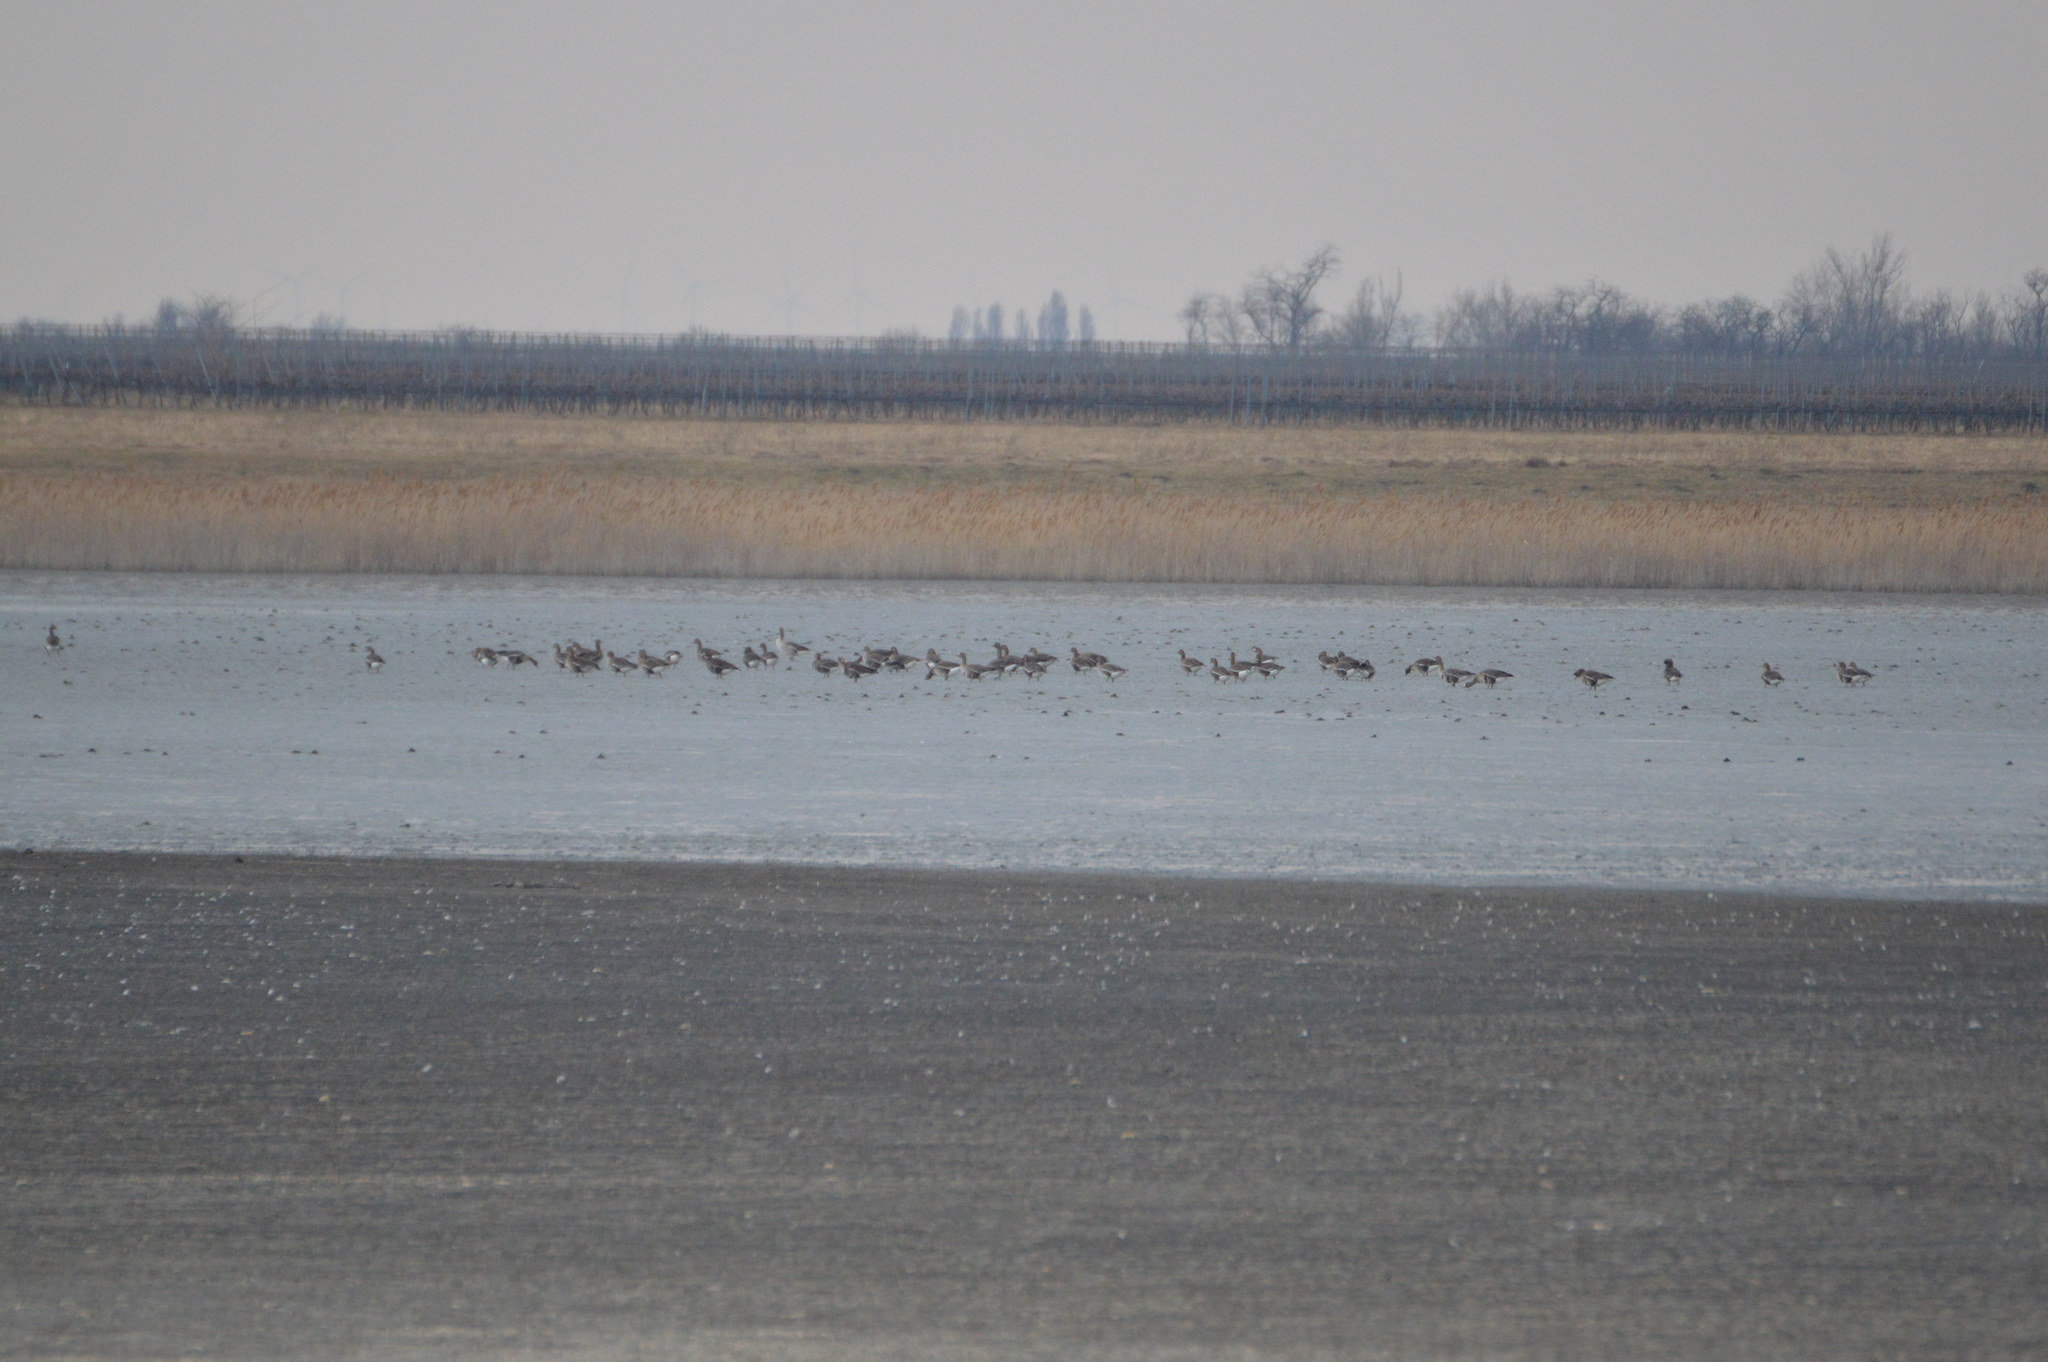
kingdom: Animalia
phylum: Chordata
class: Aves
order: Anseriformes
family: Anatidae
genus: Anser
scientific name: Anser albifrons
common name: Greater white-fronted goose
